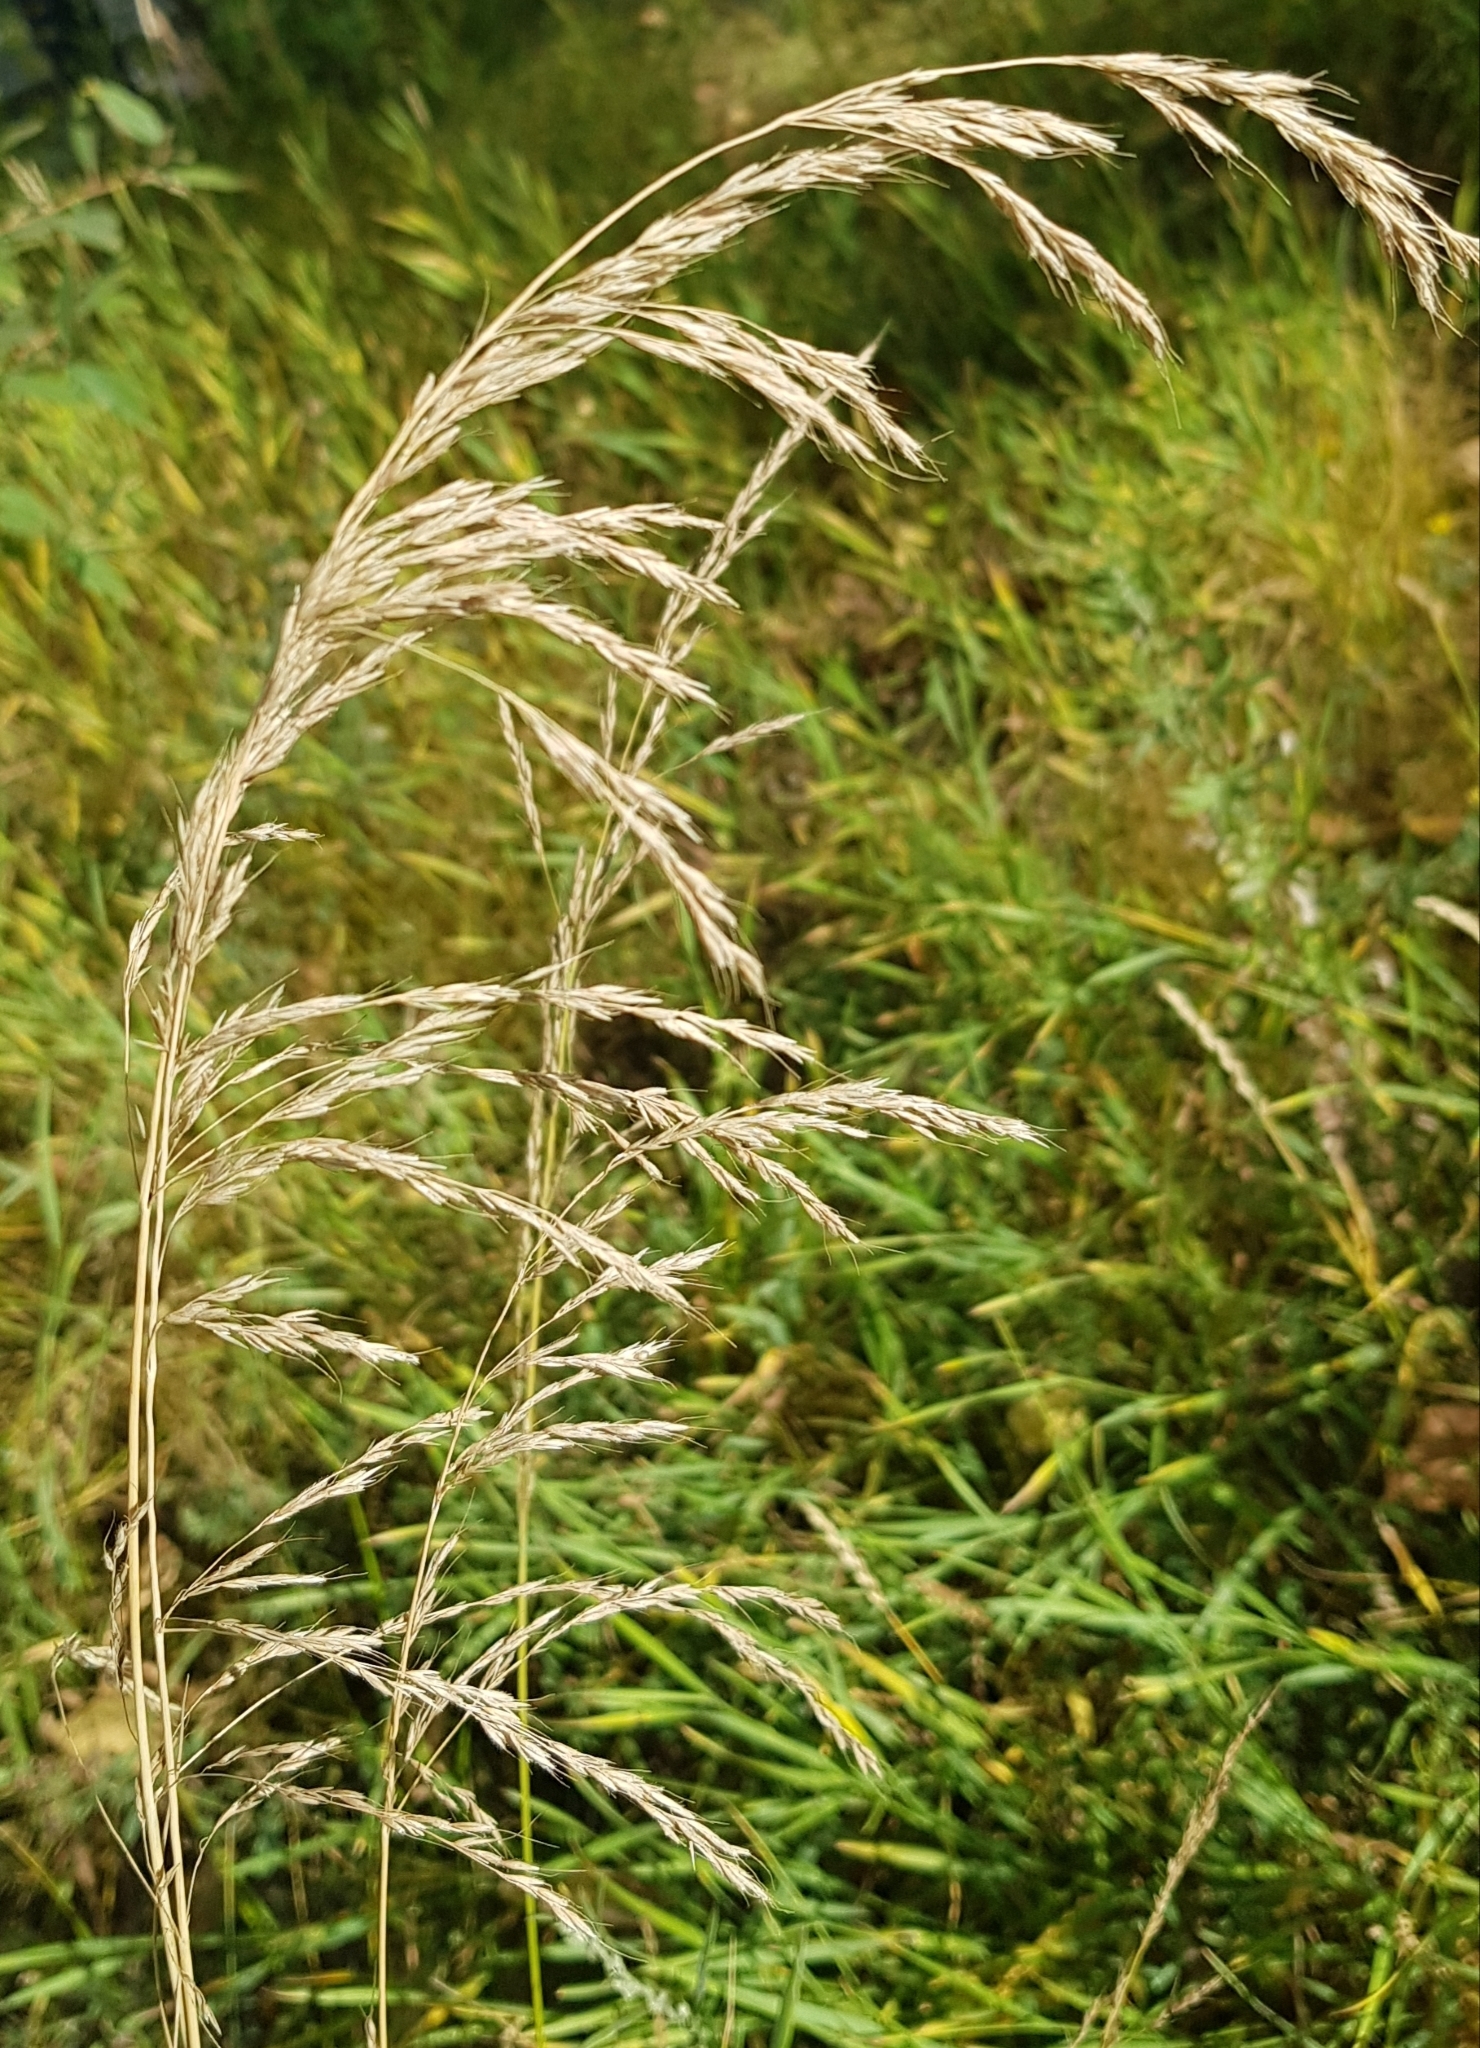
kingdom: Plantae
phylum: Tracheophyta
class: Liliopsida
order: Poales
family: Poaceae
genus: Neotrinia
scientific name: Neotrinia splendens
